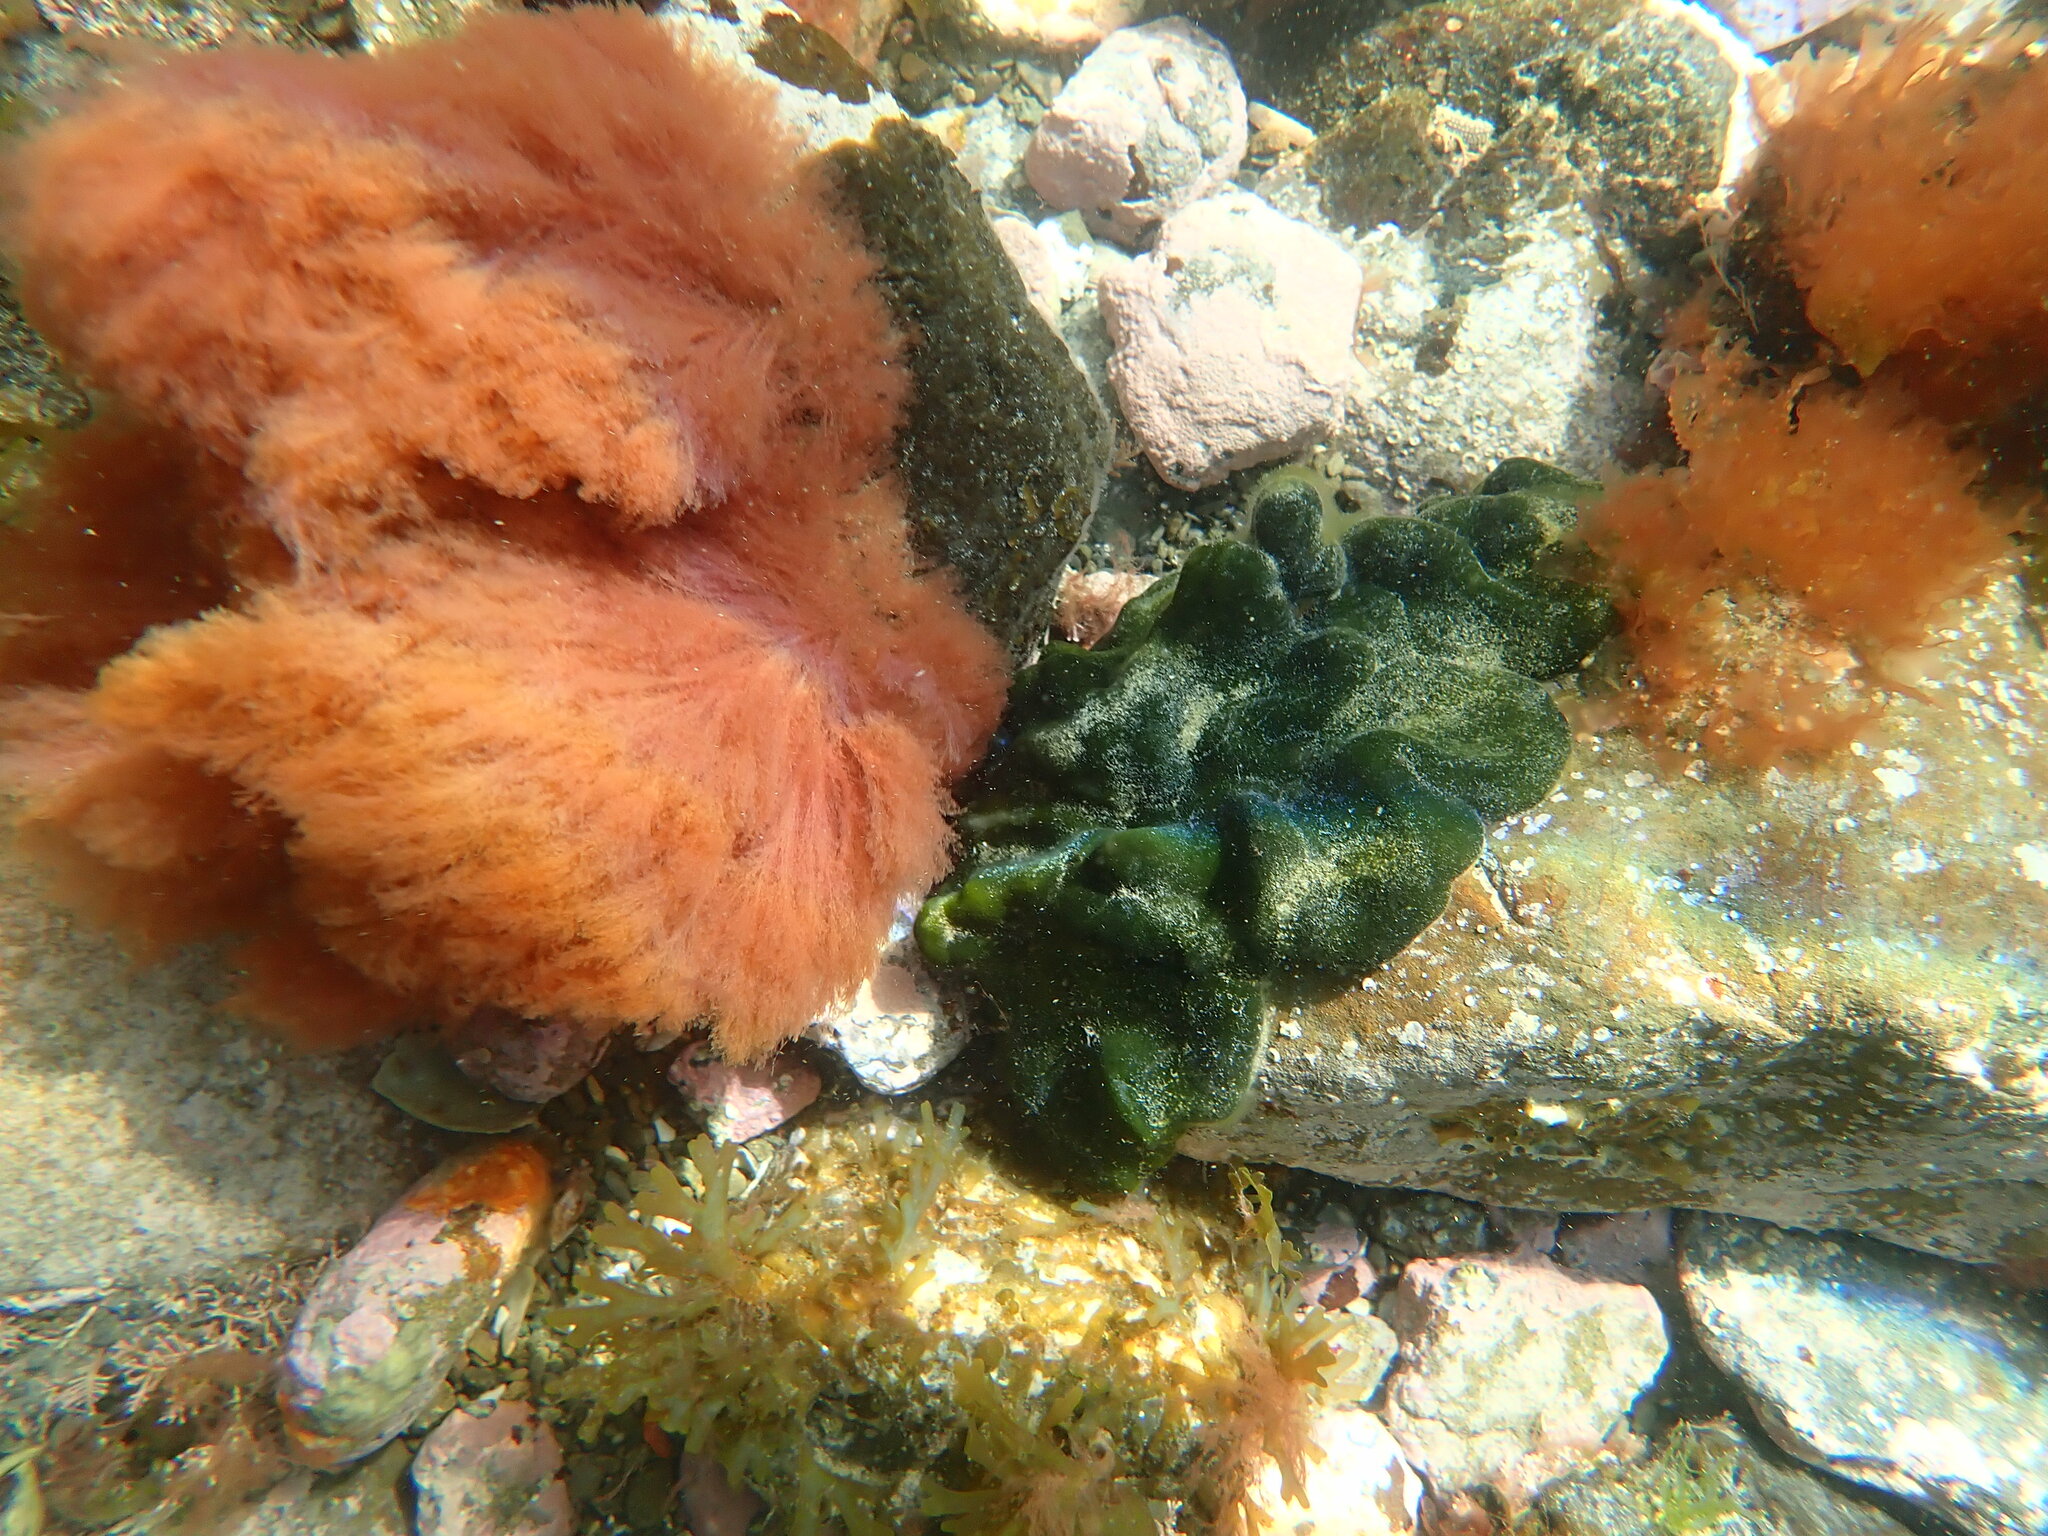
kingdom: Plantae
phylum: Chlorophyta
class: Ulvophyceae
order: Bryopsidales
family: Codiaceae
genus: Codium
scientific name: Codium convolutum
